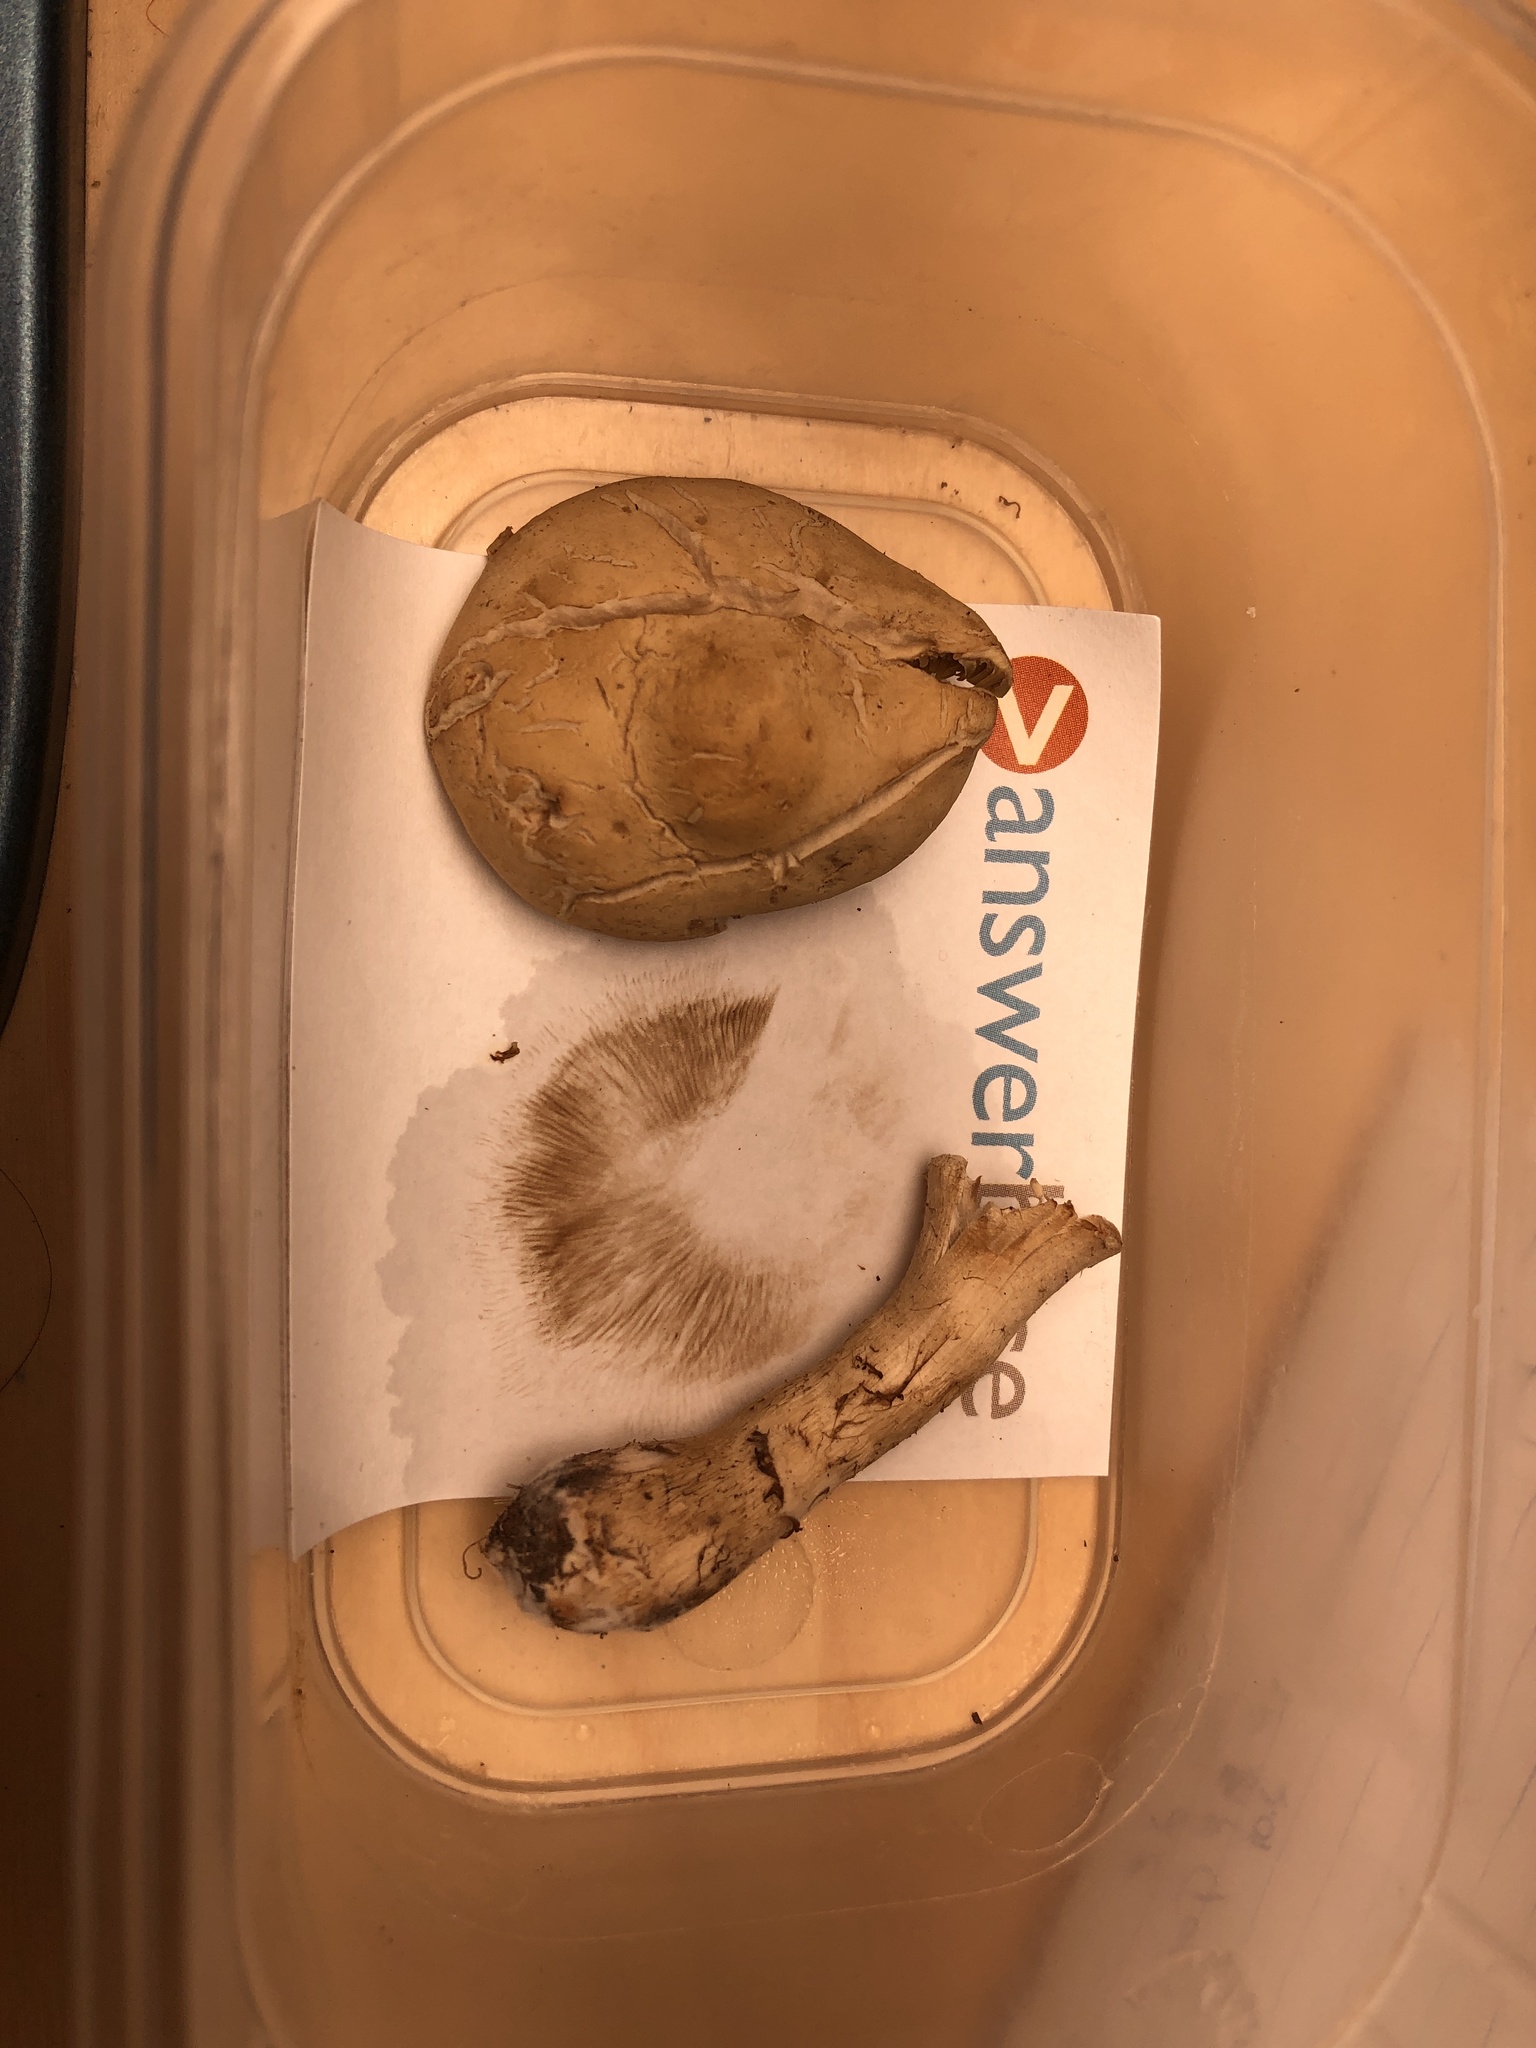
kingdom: Fungi
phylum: Basidiomycota
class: Agaricomycetes
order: Agaricales
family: Strophariaceae
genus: Agrocybe
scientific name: Agrocybe putaminum
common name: Mulch fieldcap
